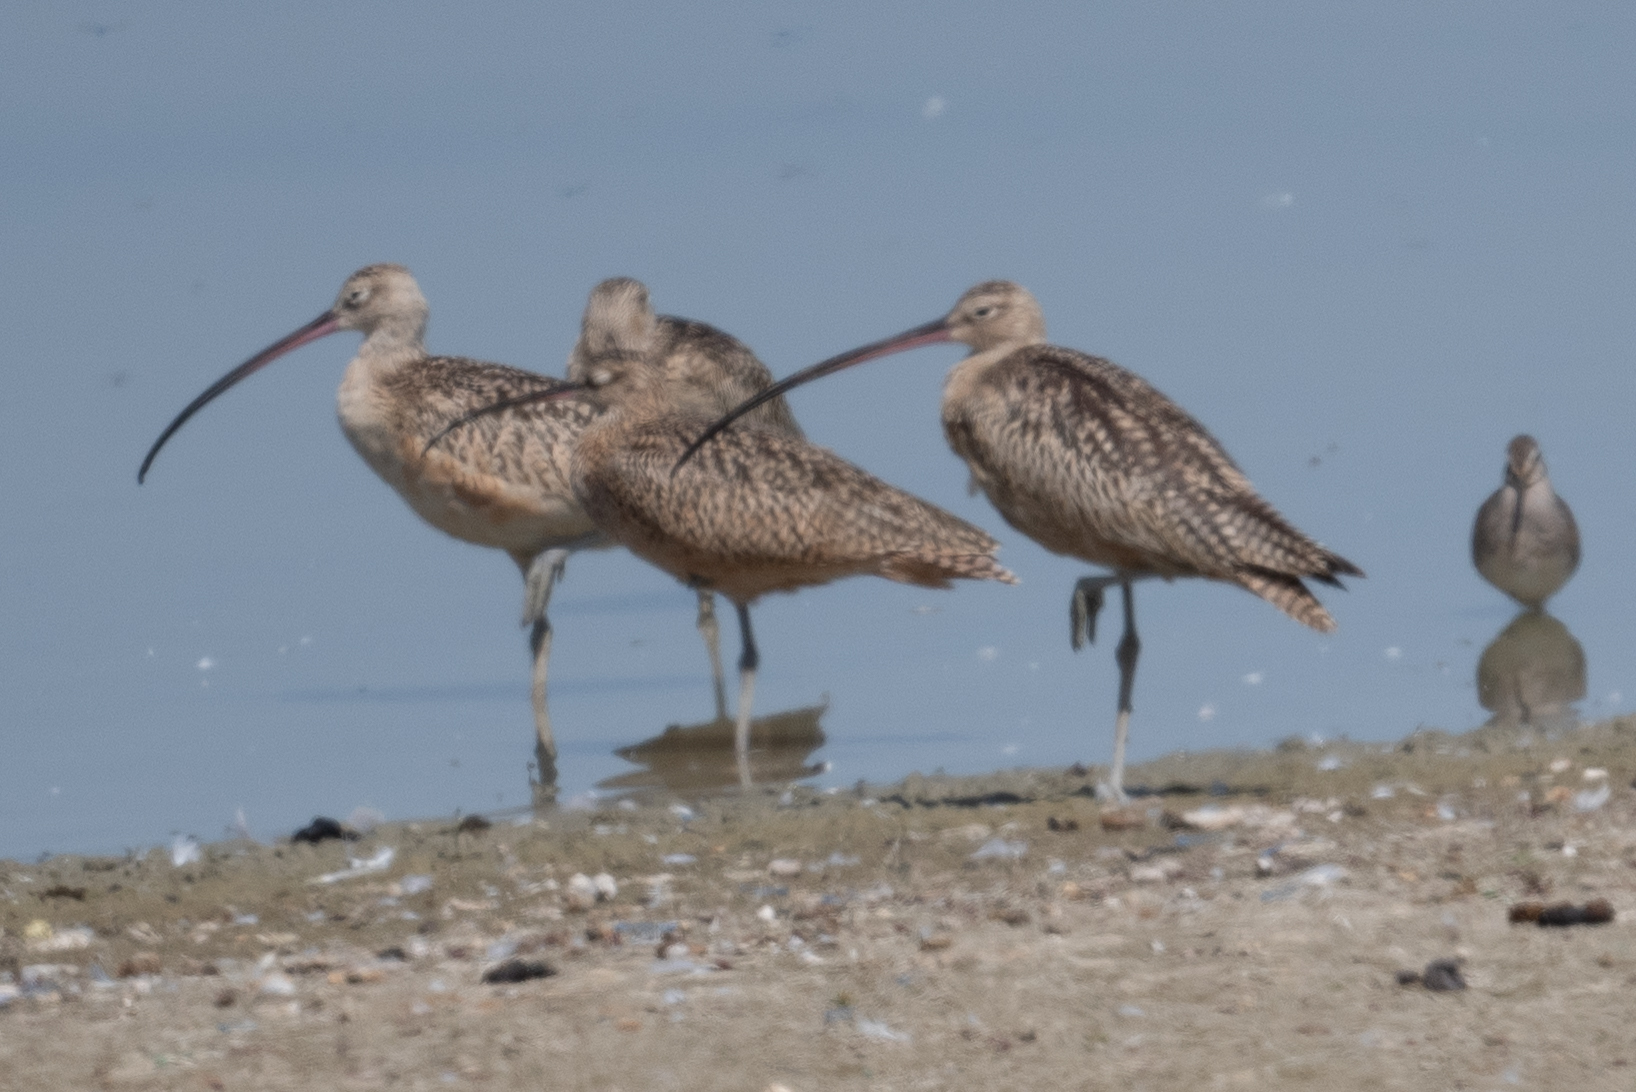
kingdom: Animalia
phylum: Chordata
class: Aves
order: Charadriiformes
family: Scolopacidae
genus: Numenius
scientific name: Numenius americanus
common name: Long-billed curlew
